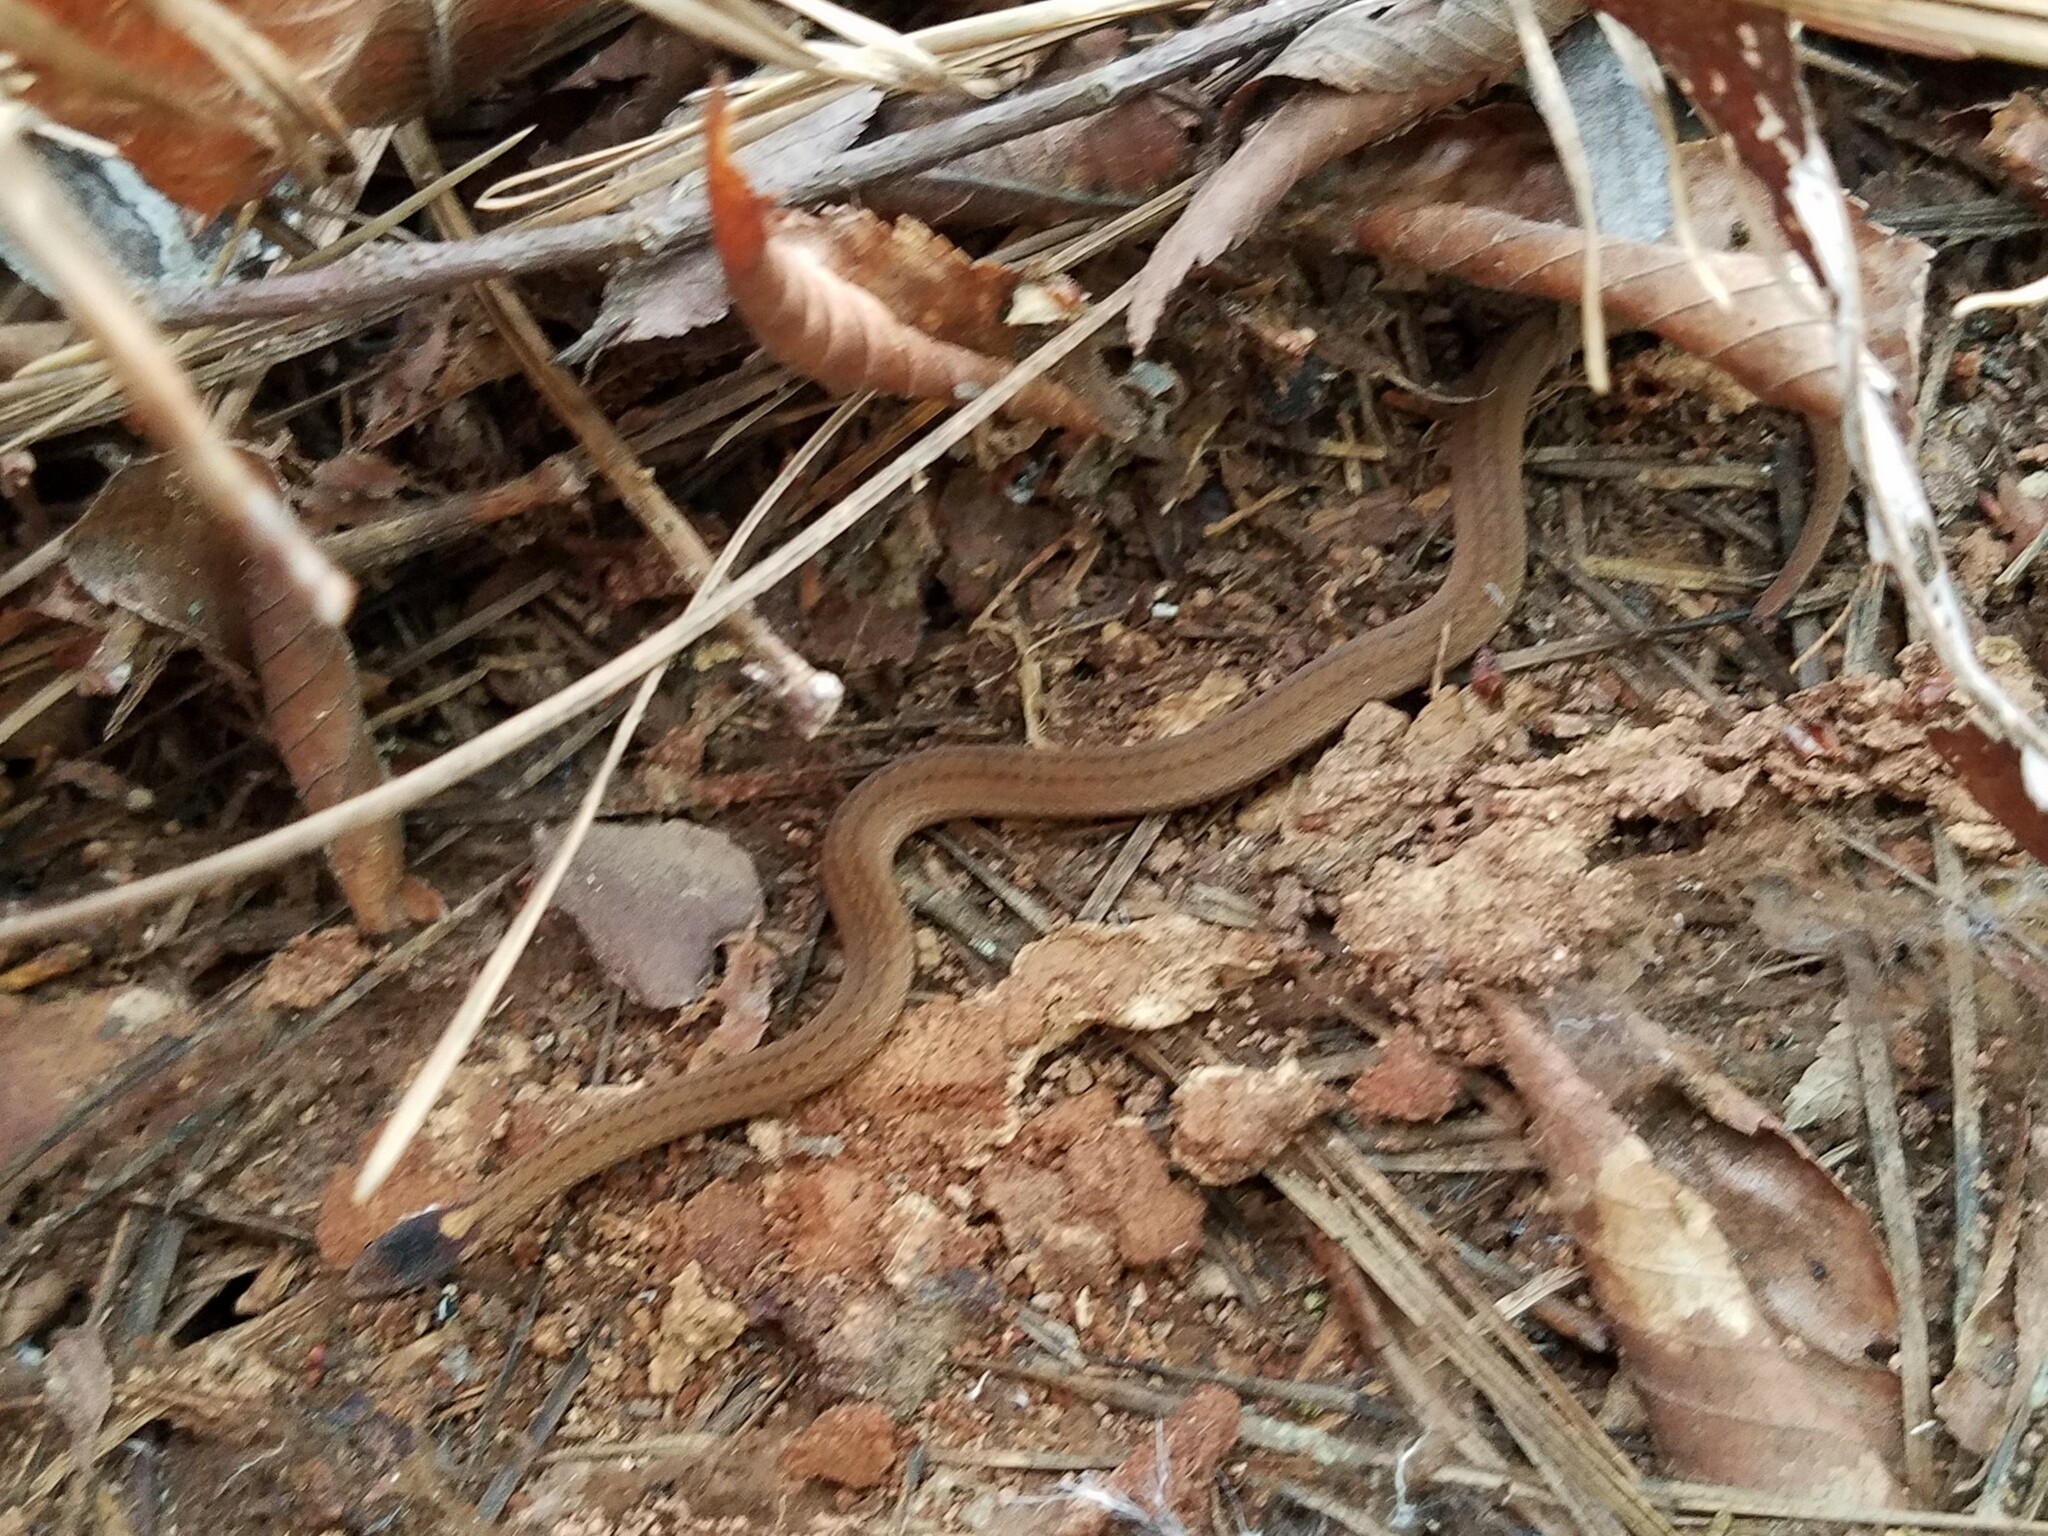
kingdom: Animalia
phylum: Chordata
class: Squamata
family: Colubridae
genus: Storeria
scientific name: Storeria occipitomaculata
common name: Redbelly snake
